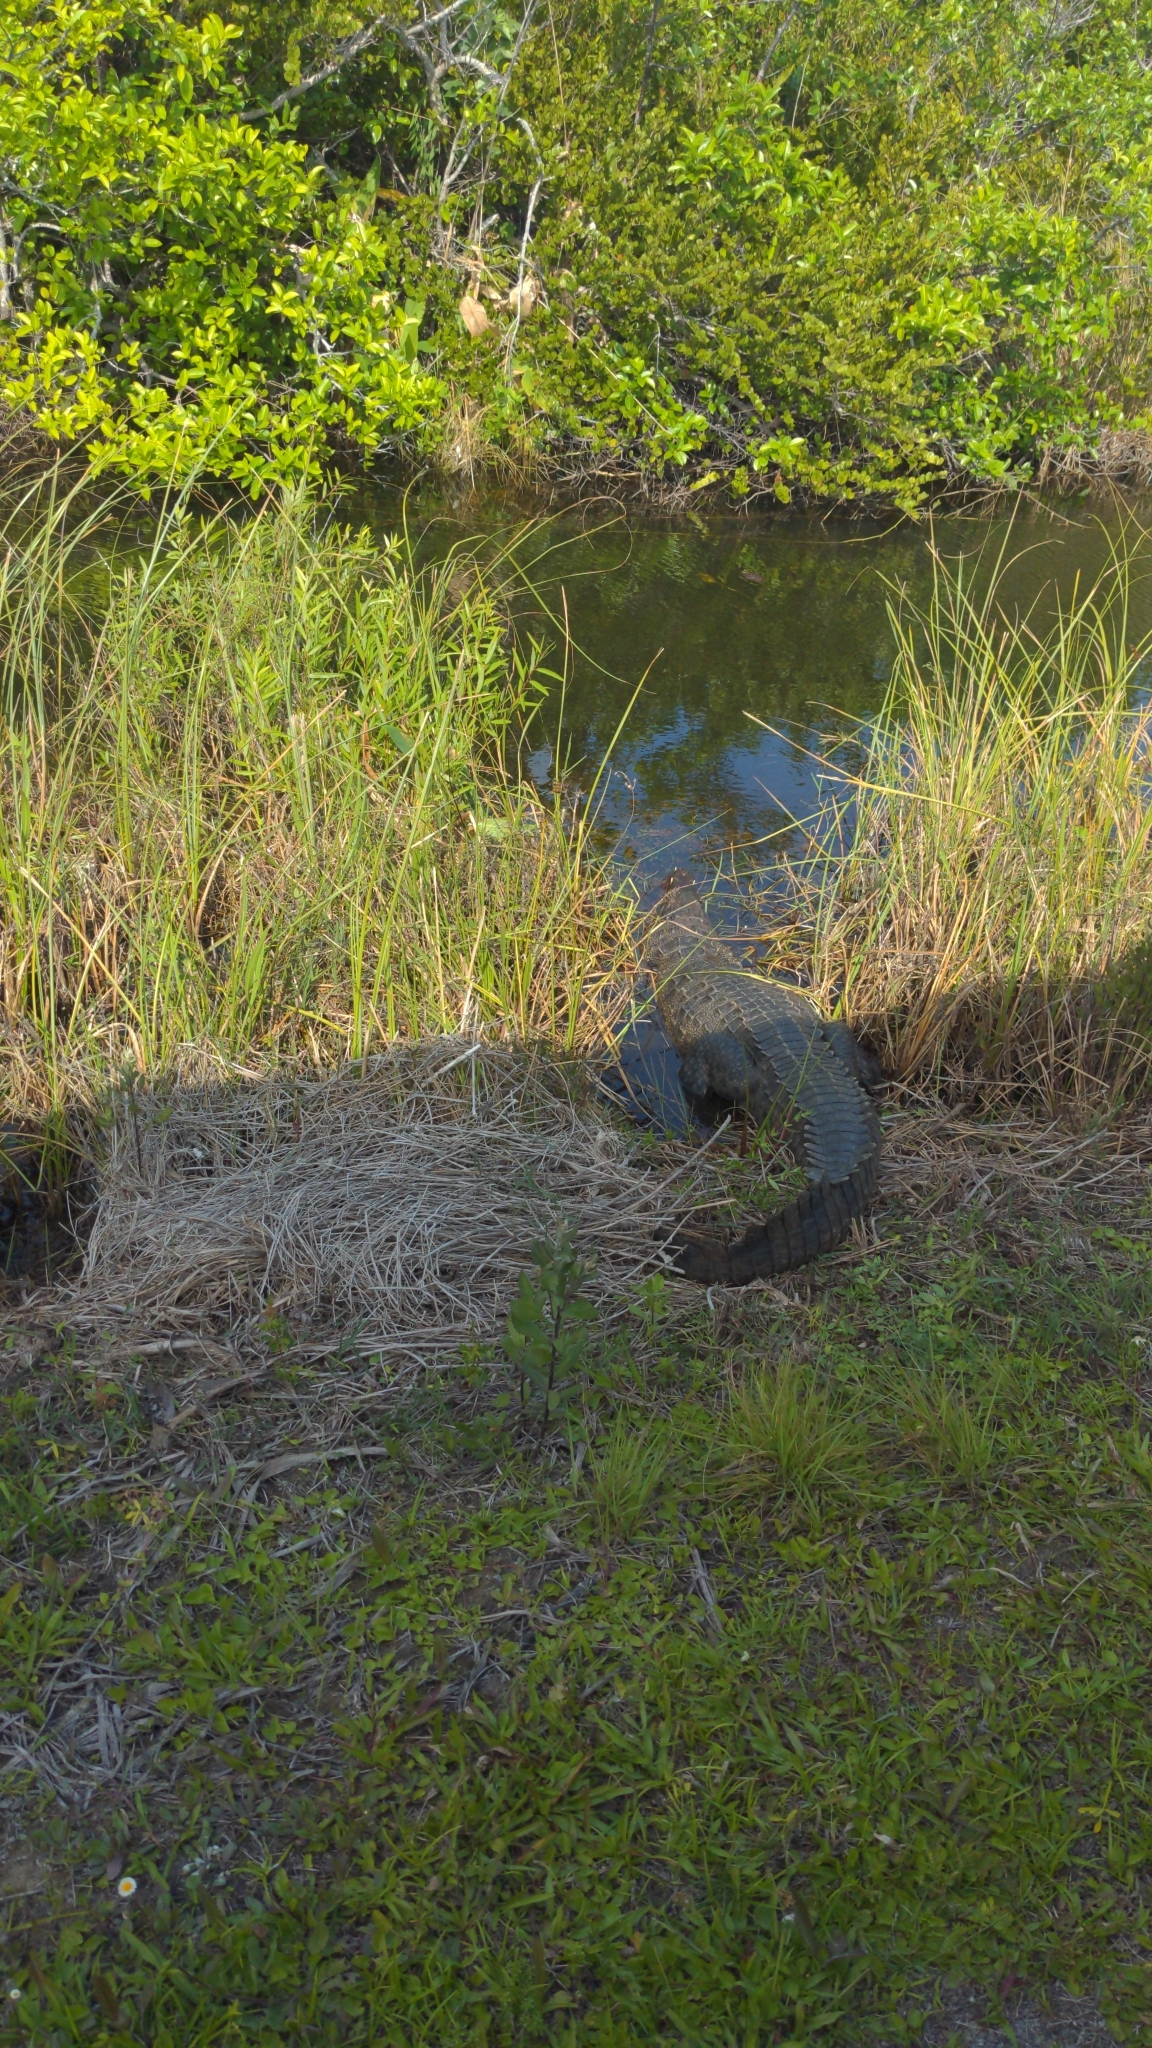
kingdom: Animalia
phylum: Chordata
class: Crocodylia
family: Crocodylidae
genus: Crocodylus
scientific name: Crocodylus acutus
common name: American crocodile
